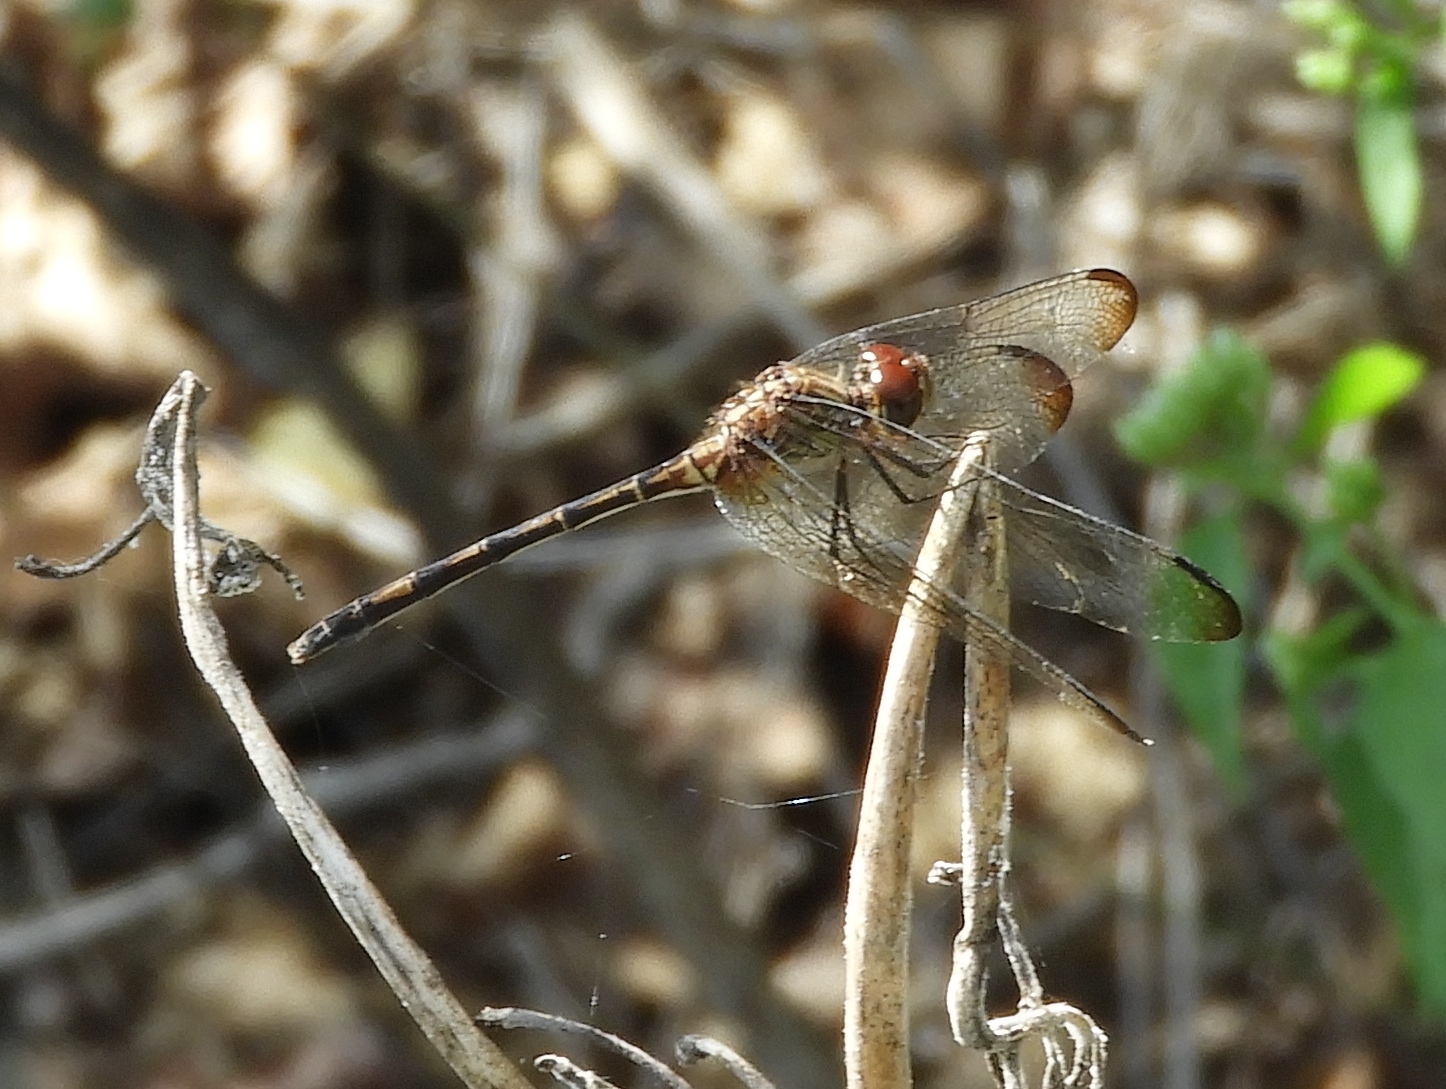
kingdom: Animalia
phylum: Arthropoda
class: Insecta
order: Odonata
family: Libellulidae
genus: Dythemis
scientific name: Dythemis sterilis
